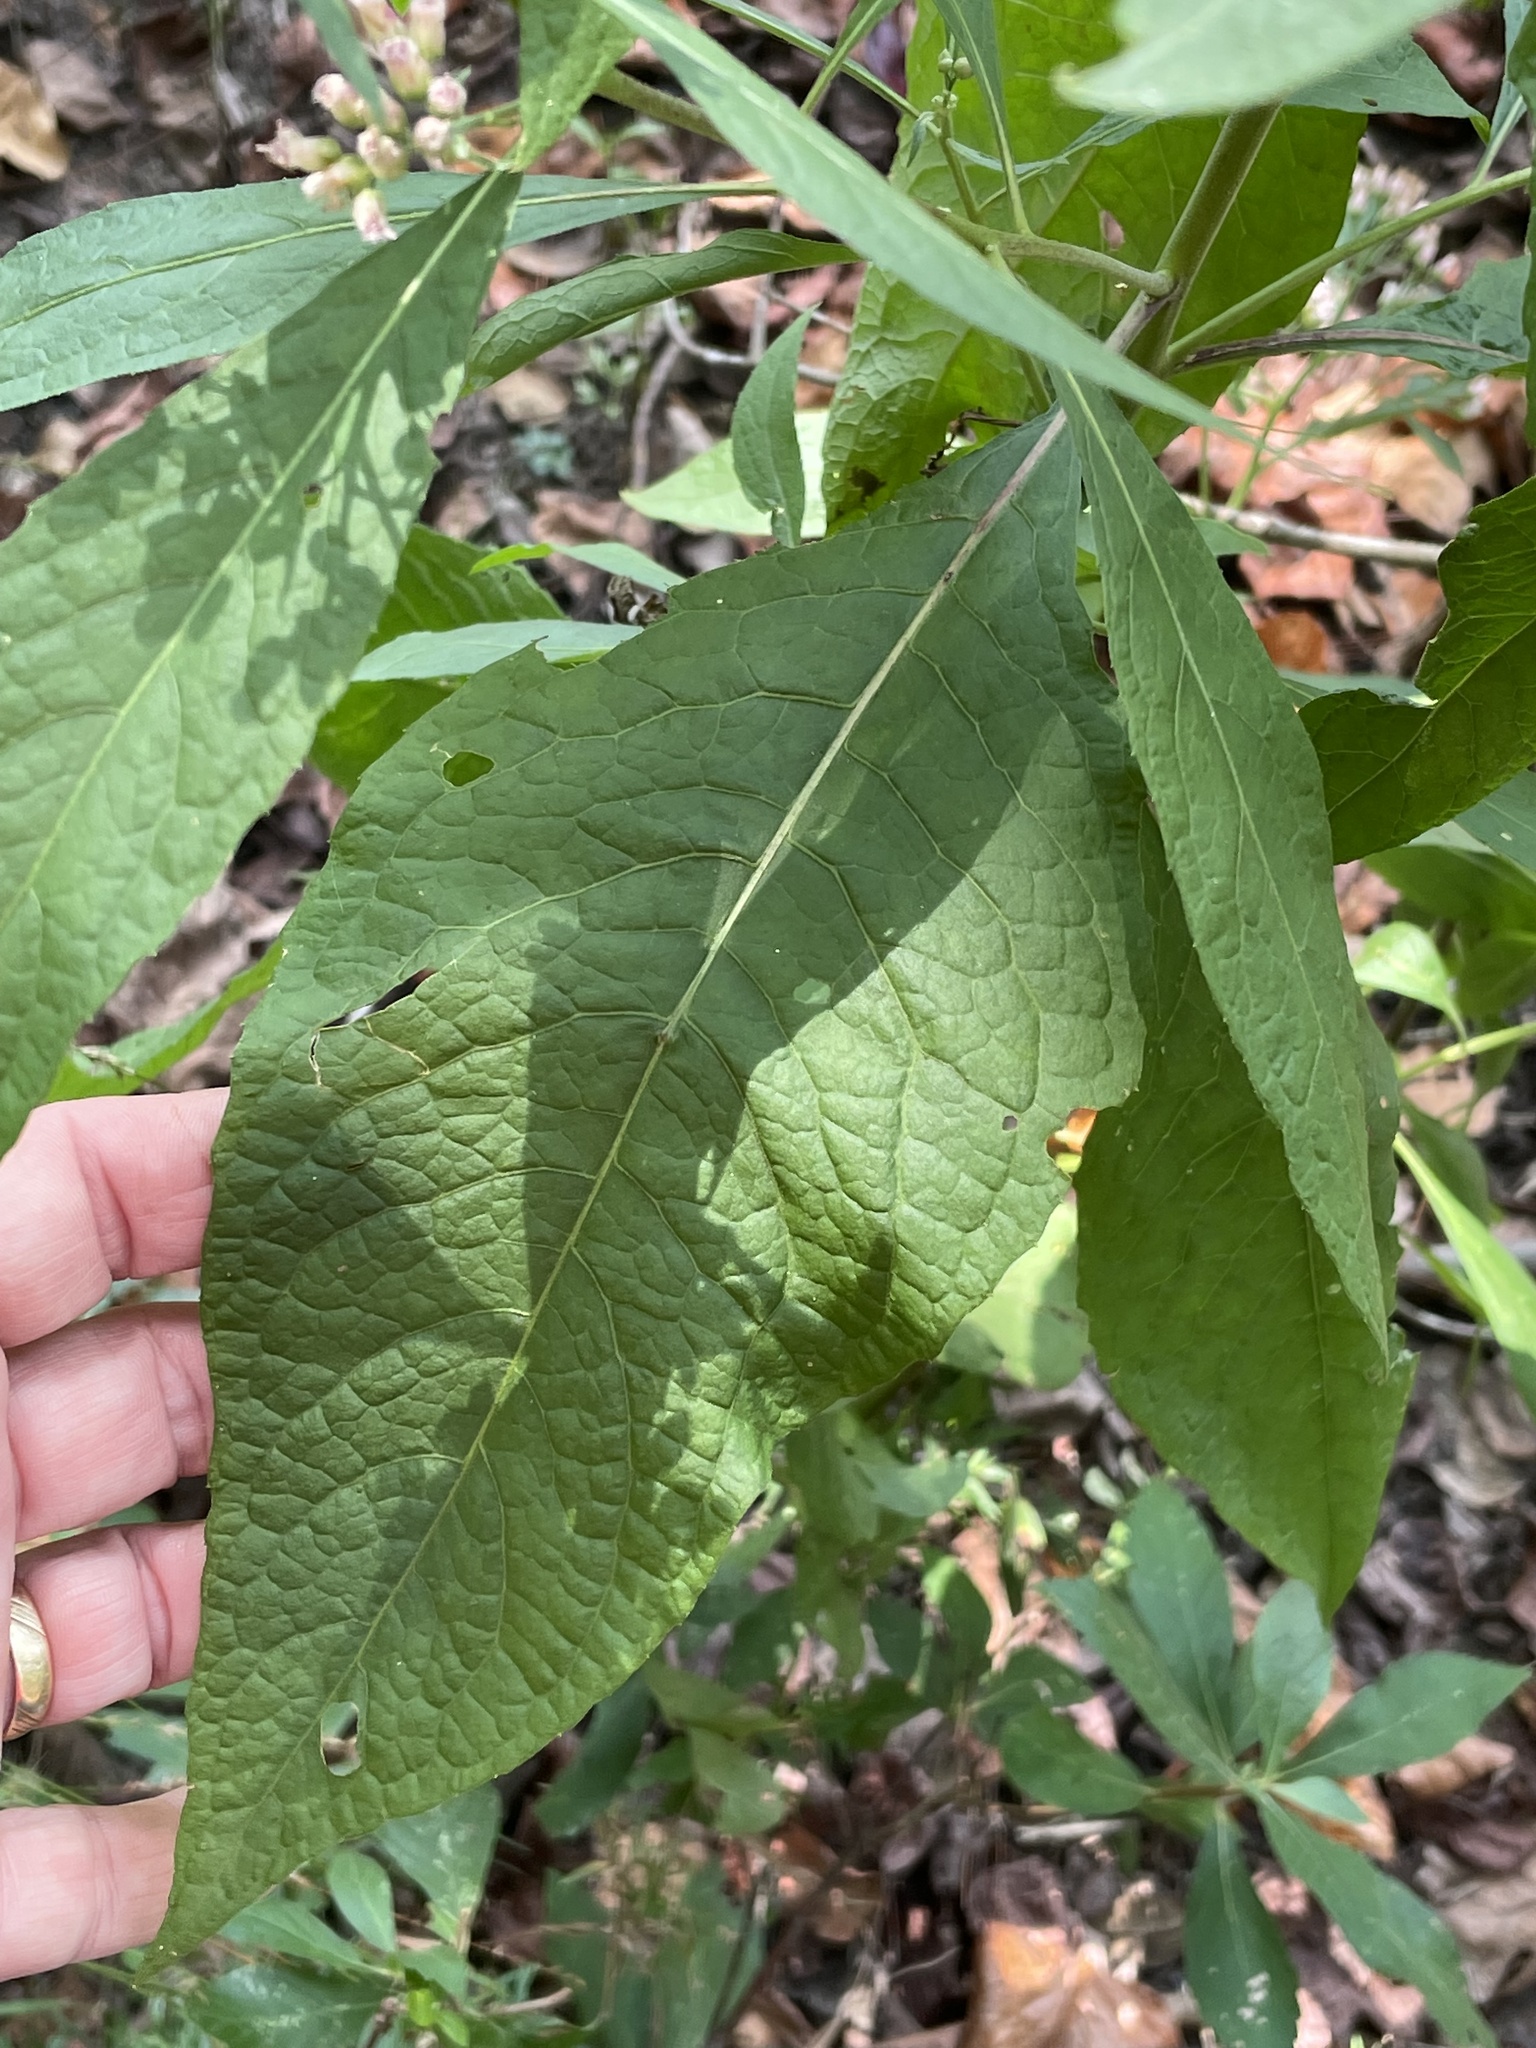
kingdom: Plantae
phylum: Tracheophyta
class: Magnoliopsida
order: Asterales
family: Asteraceae
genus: Pluchea
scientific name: Pluchea camphorata
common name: Camphor pluchea
